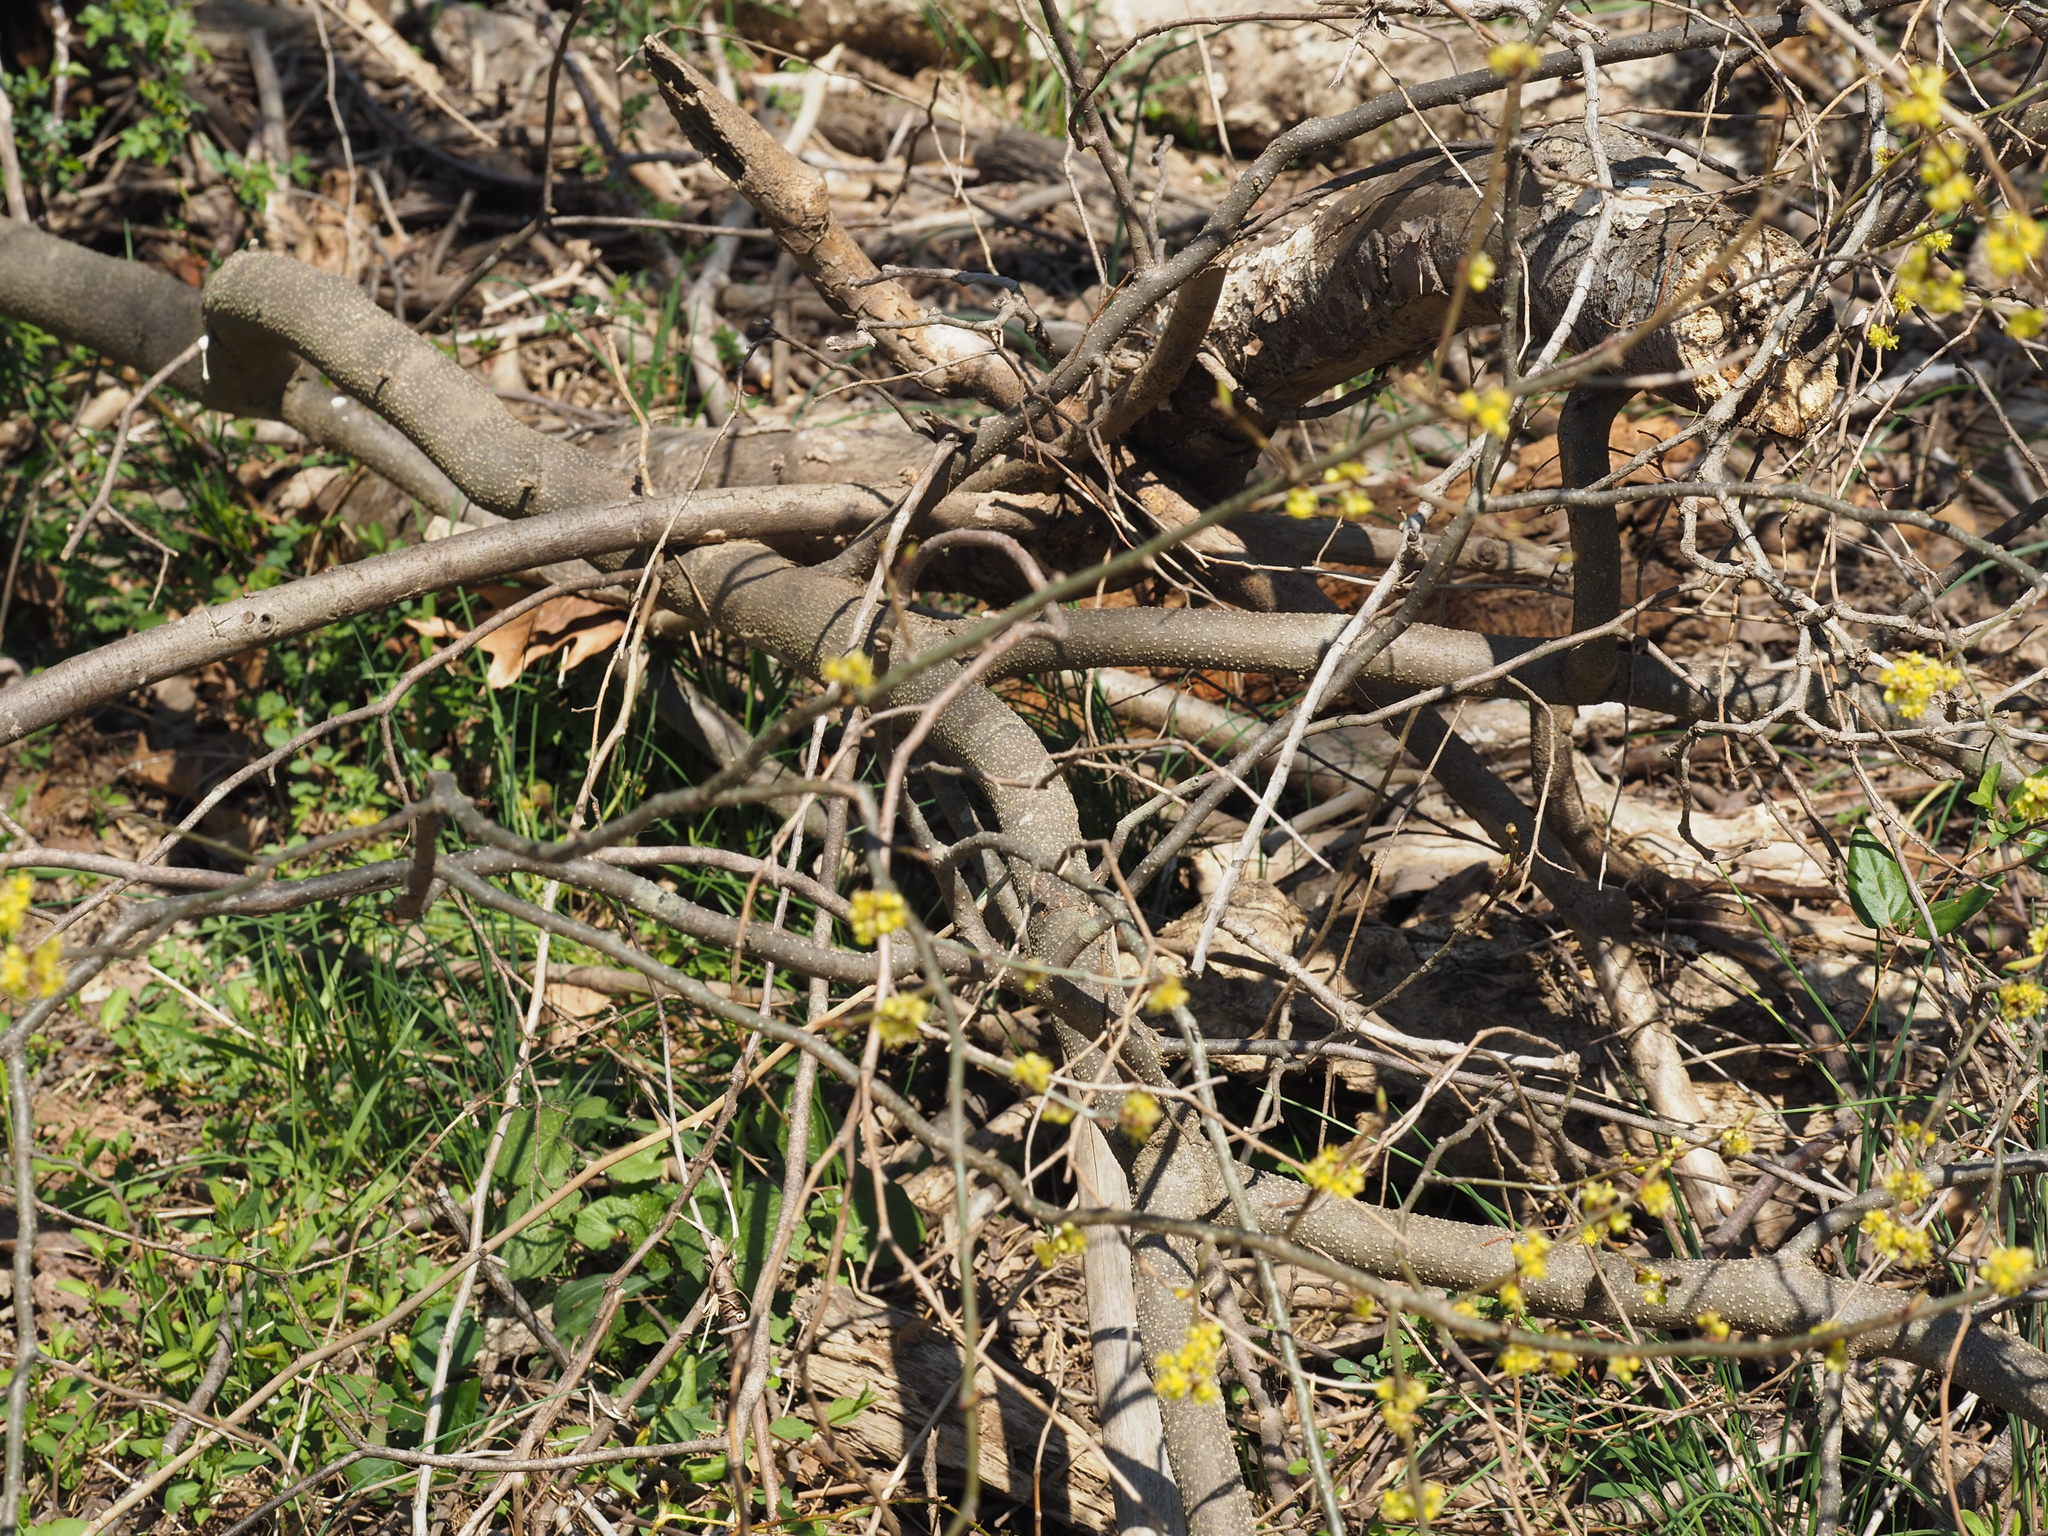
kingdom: Plantae
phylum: Tracheophyta
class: Magnoliopsida
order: Laurales
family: Lauraceae
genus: Lindera
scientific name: Lindera benzoin
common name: Spicebush
